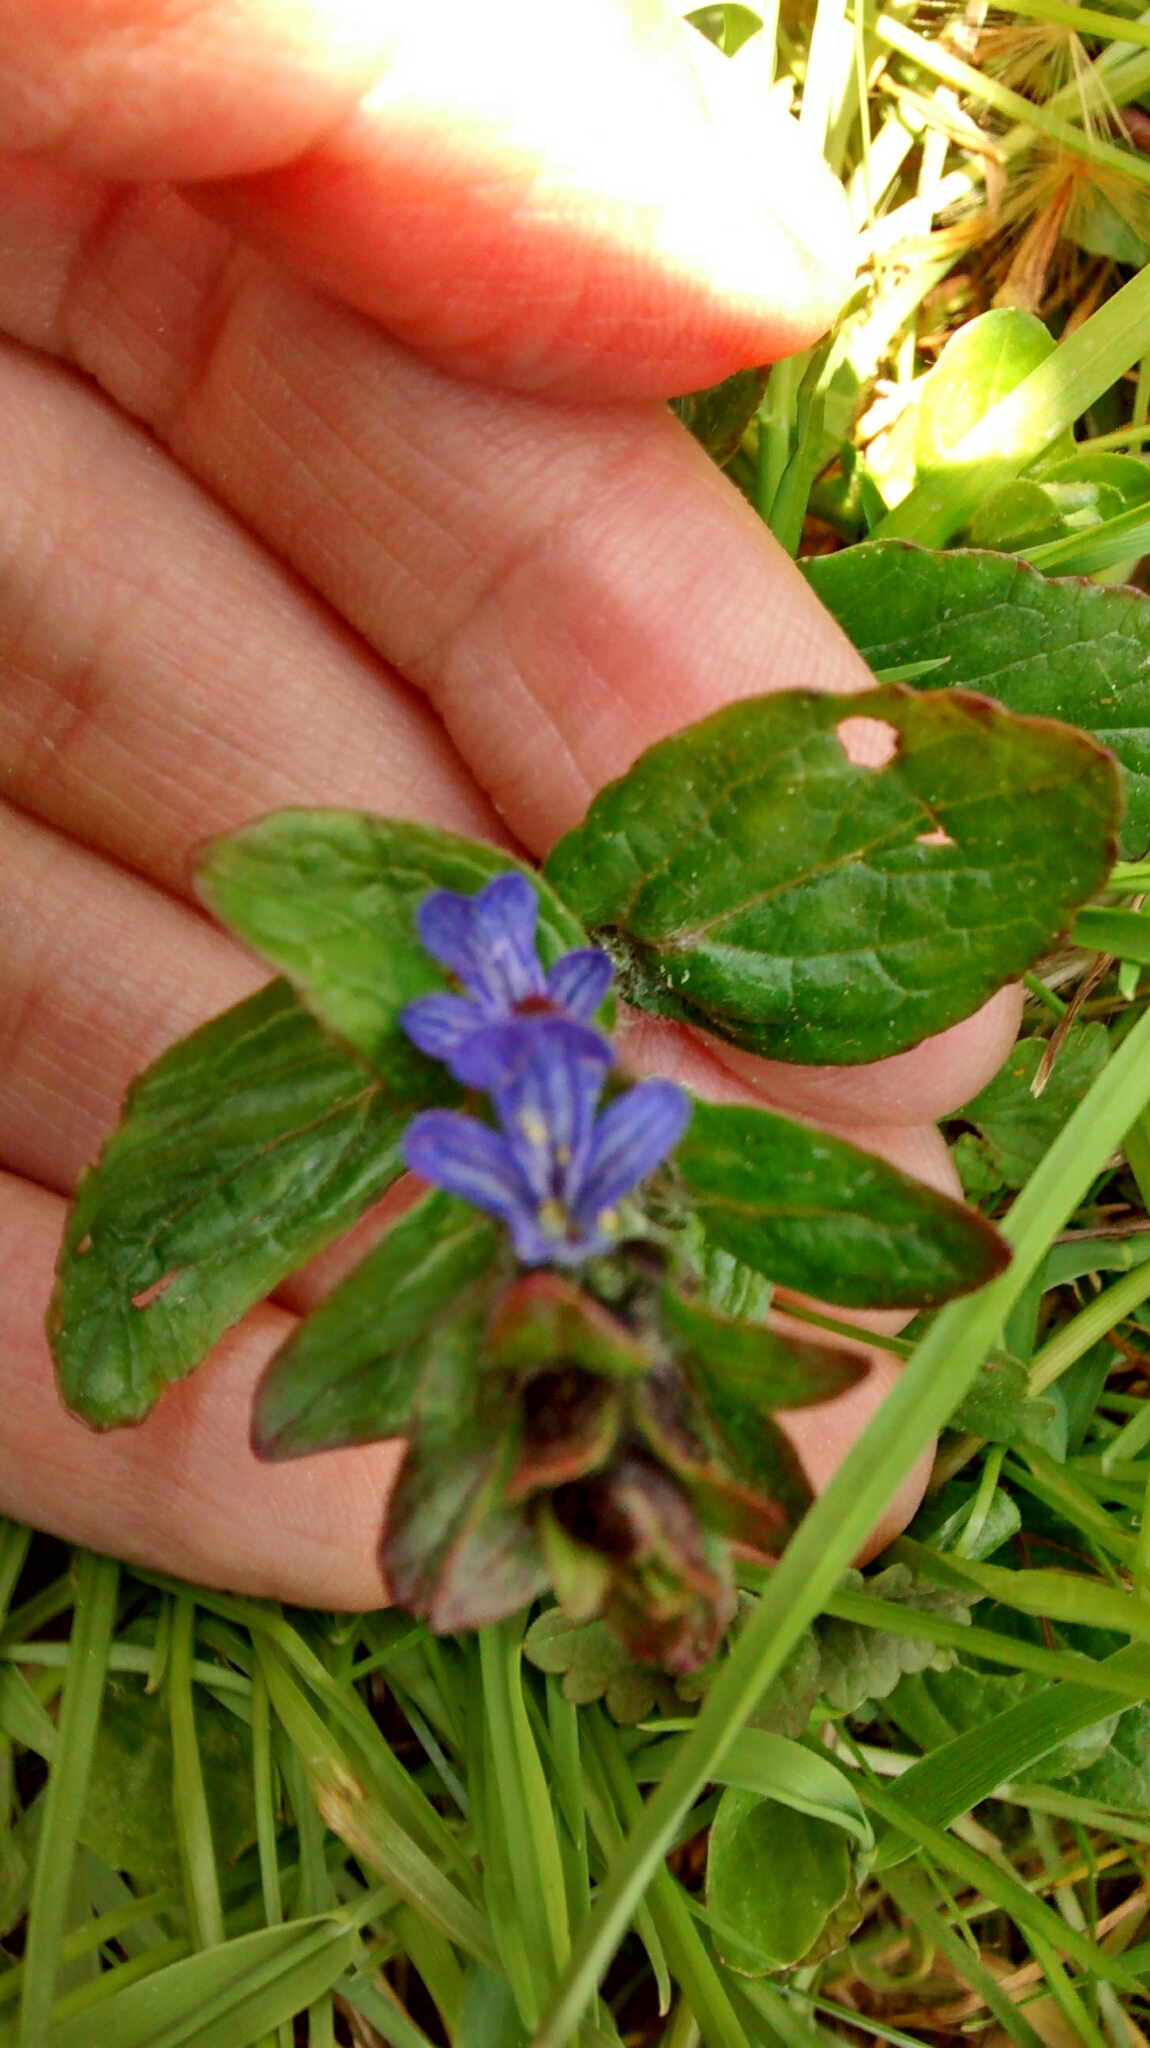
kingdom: Plantae
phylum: Tracheophyta
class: Magnoliopsida
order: Lamiales
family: Lamiaceae
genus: Ajuga
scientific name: Ajuga reptans
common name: Bugle
